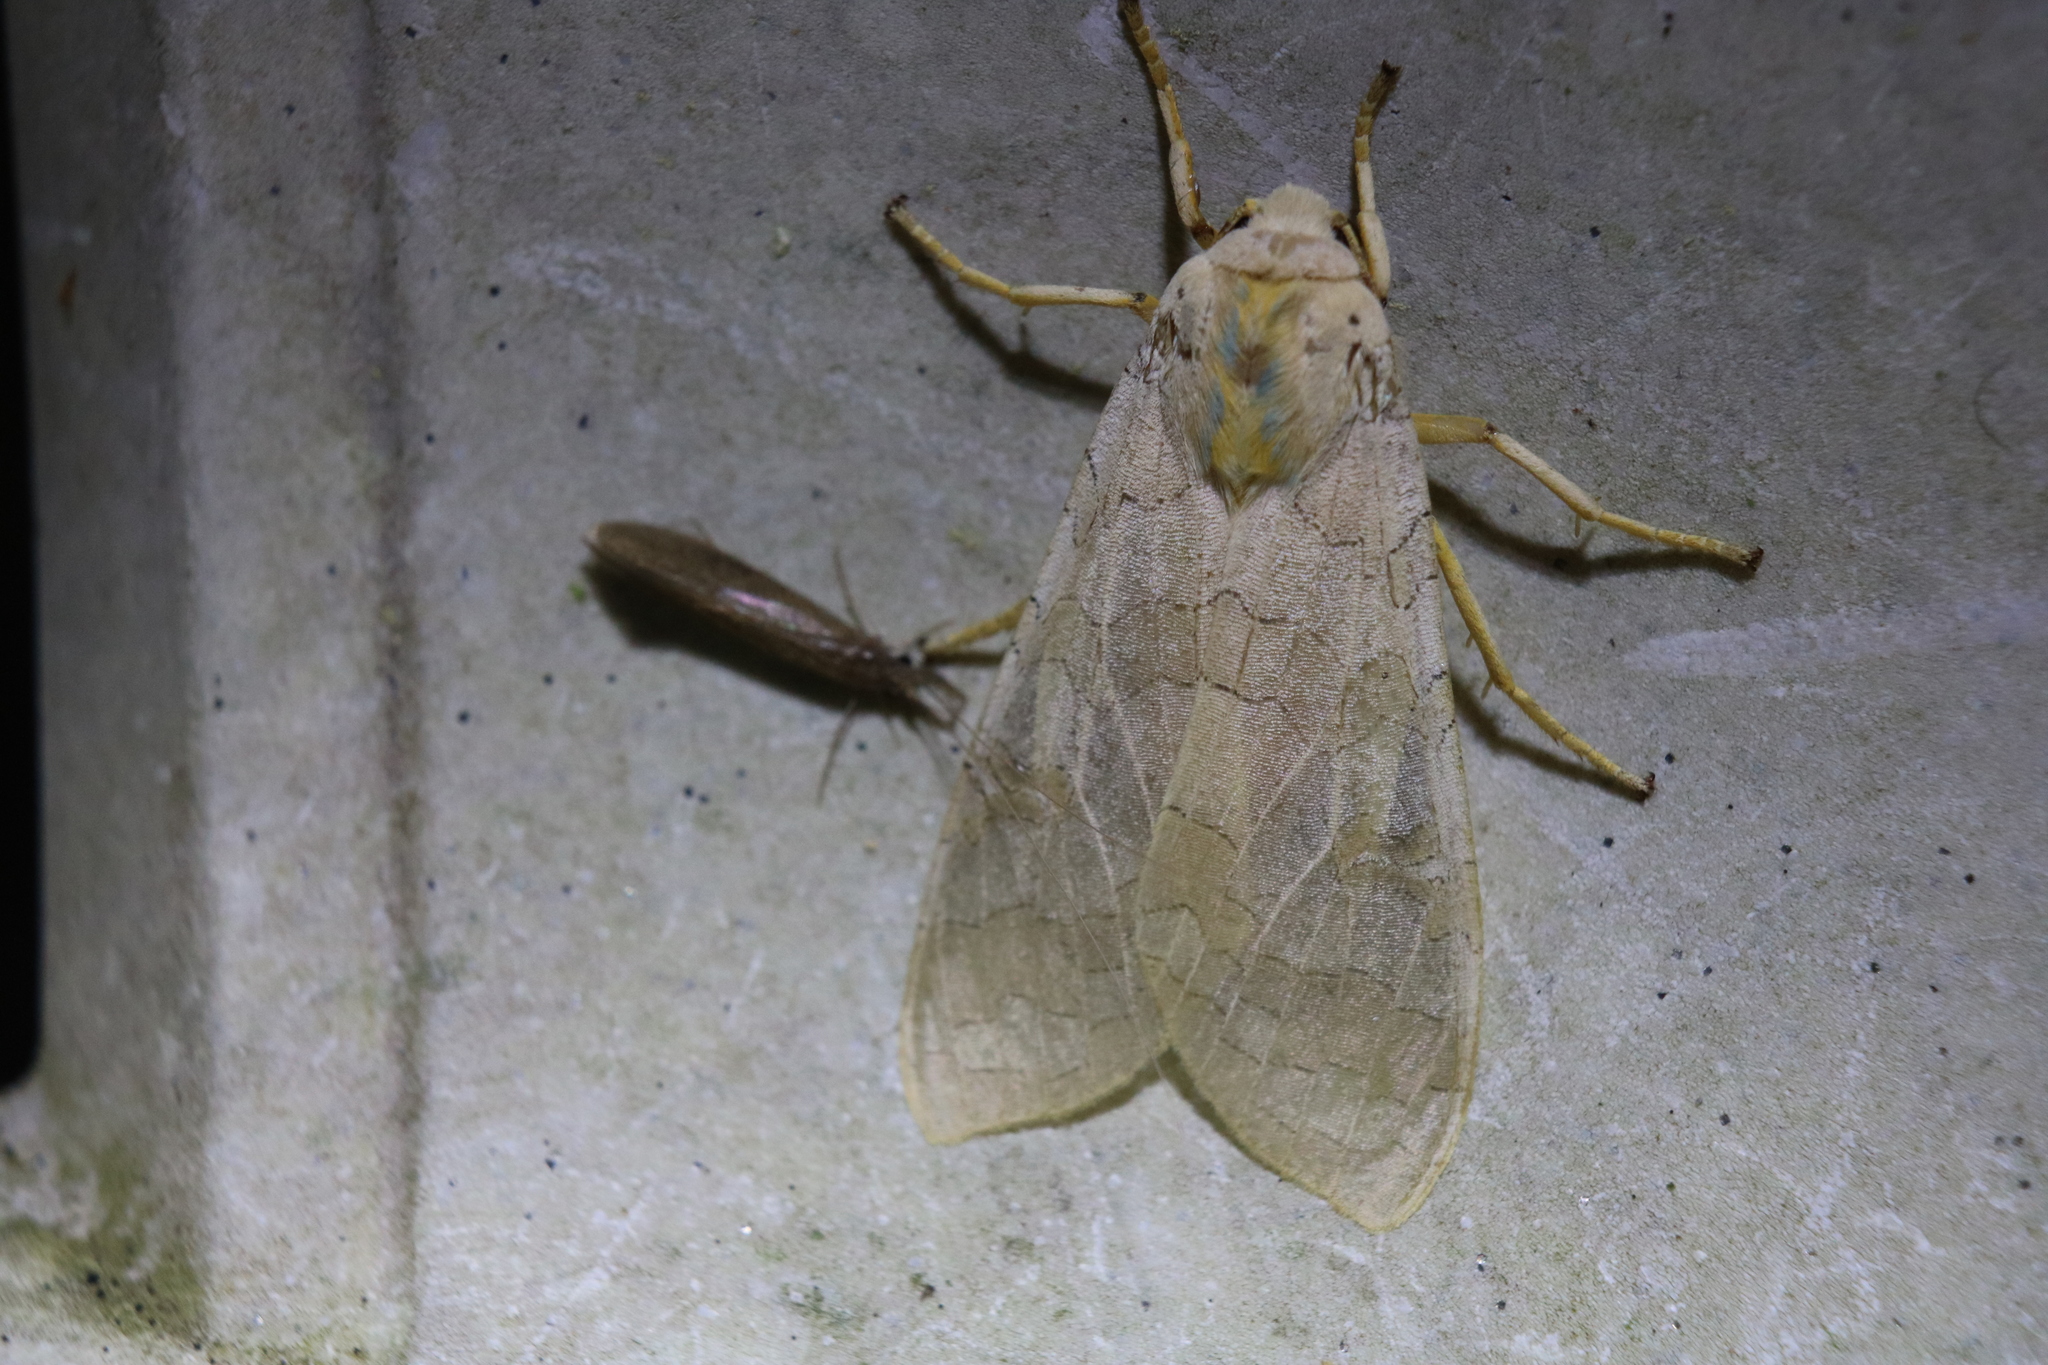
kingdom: Animalia
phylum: Arthropoda
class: Insecta
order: Lepidoptera
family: Erebidae
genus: Halysidota
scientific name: Halysidota tessellaris
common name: Banded tussock moth
